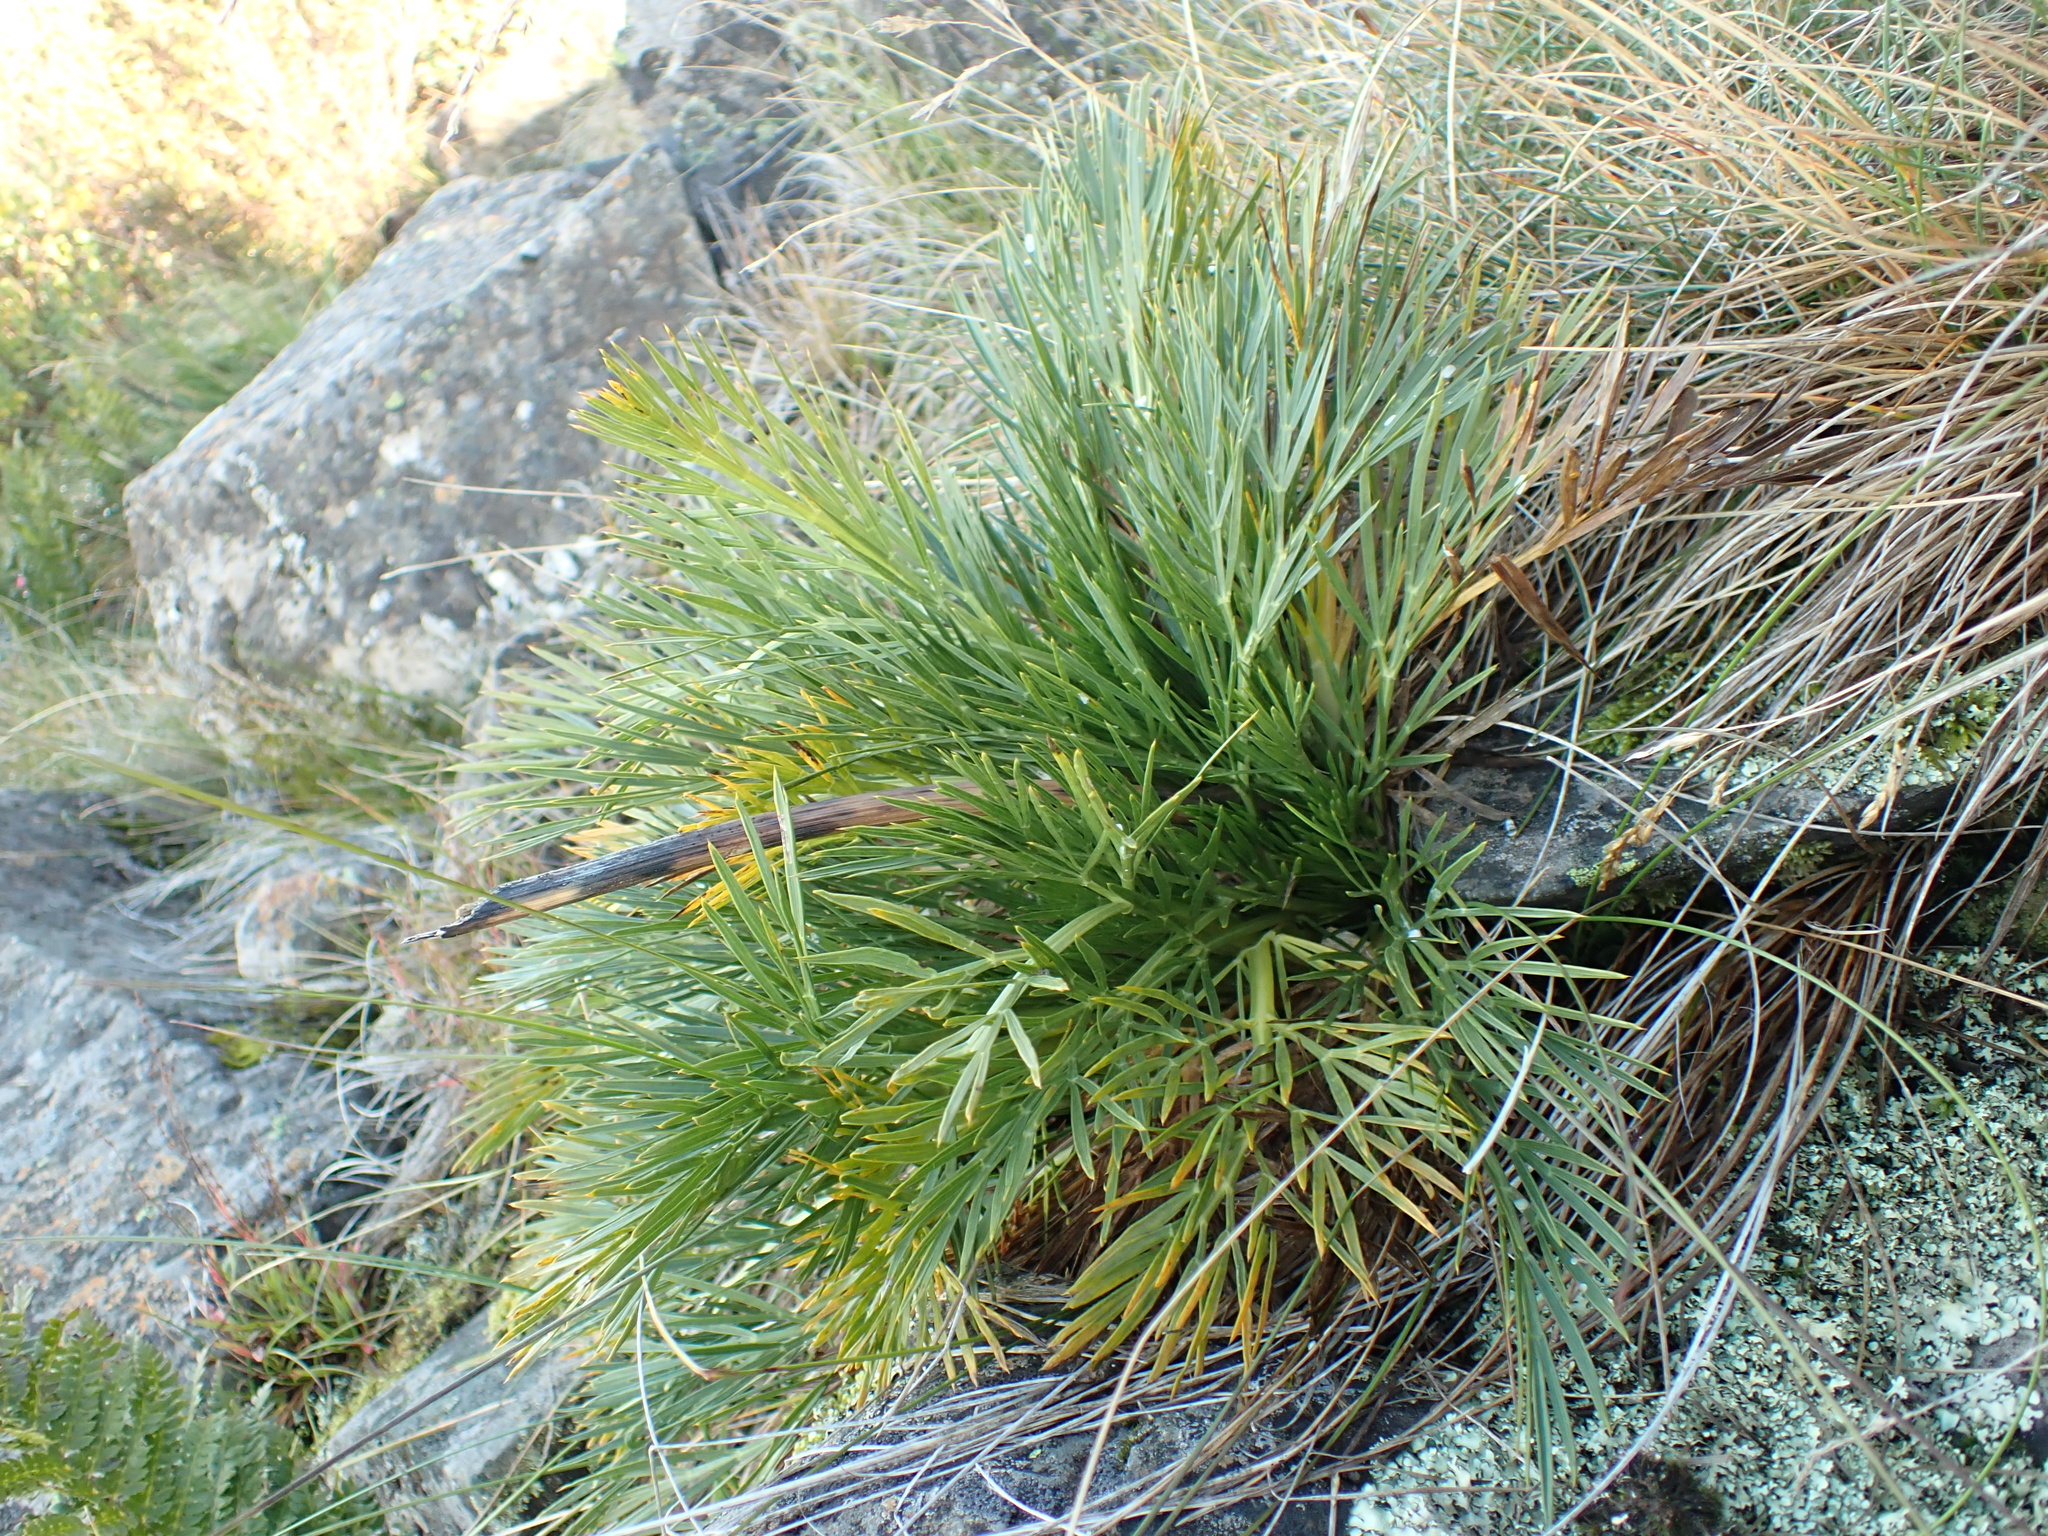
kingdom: Plantae
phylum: Tracheophyta
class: Magnoliopsida
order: Apiales
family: Apiaceae
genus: Aciphylla
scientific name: Aciphylla glacialis
